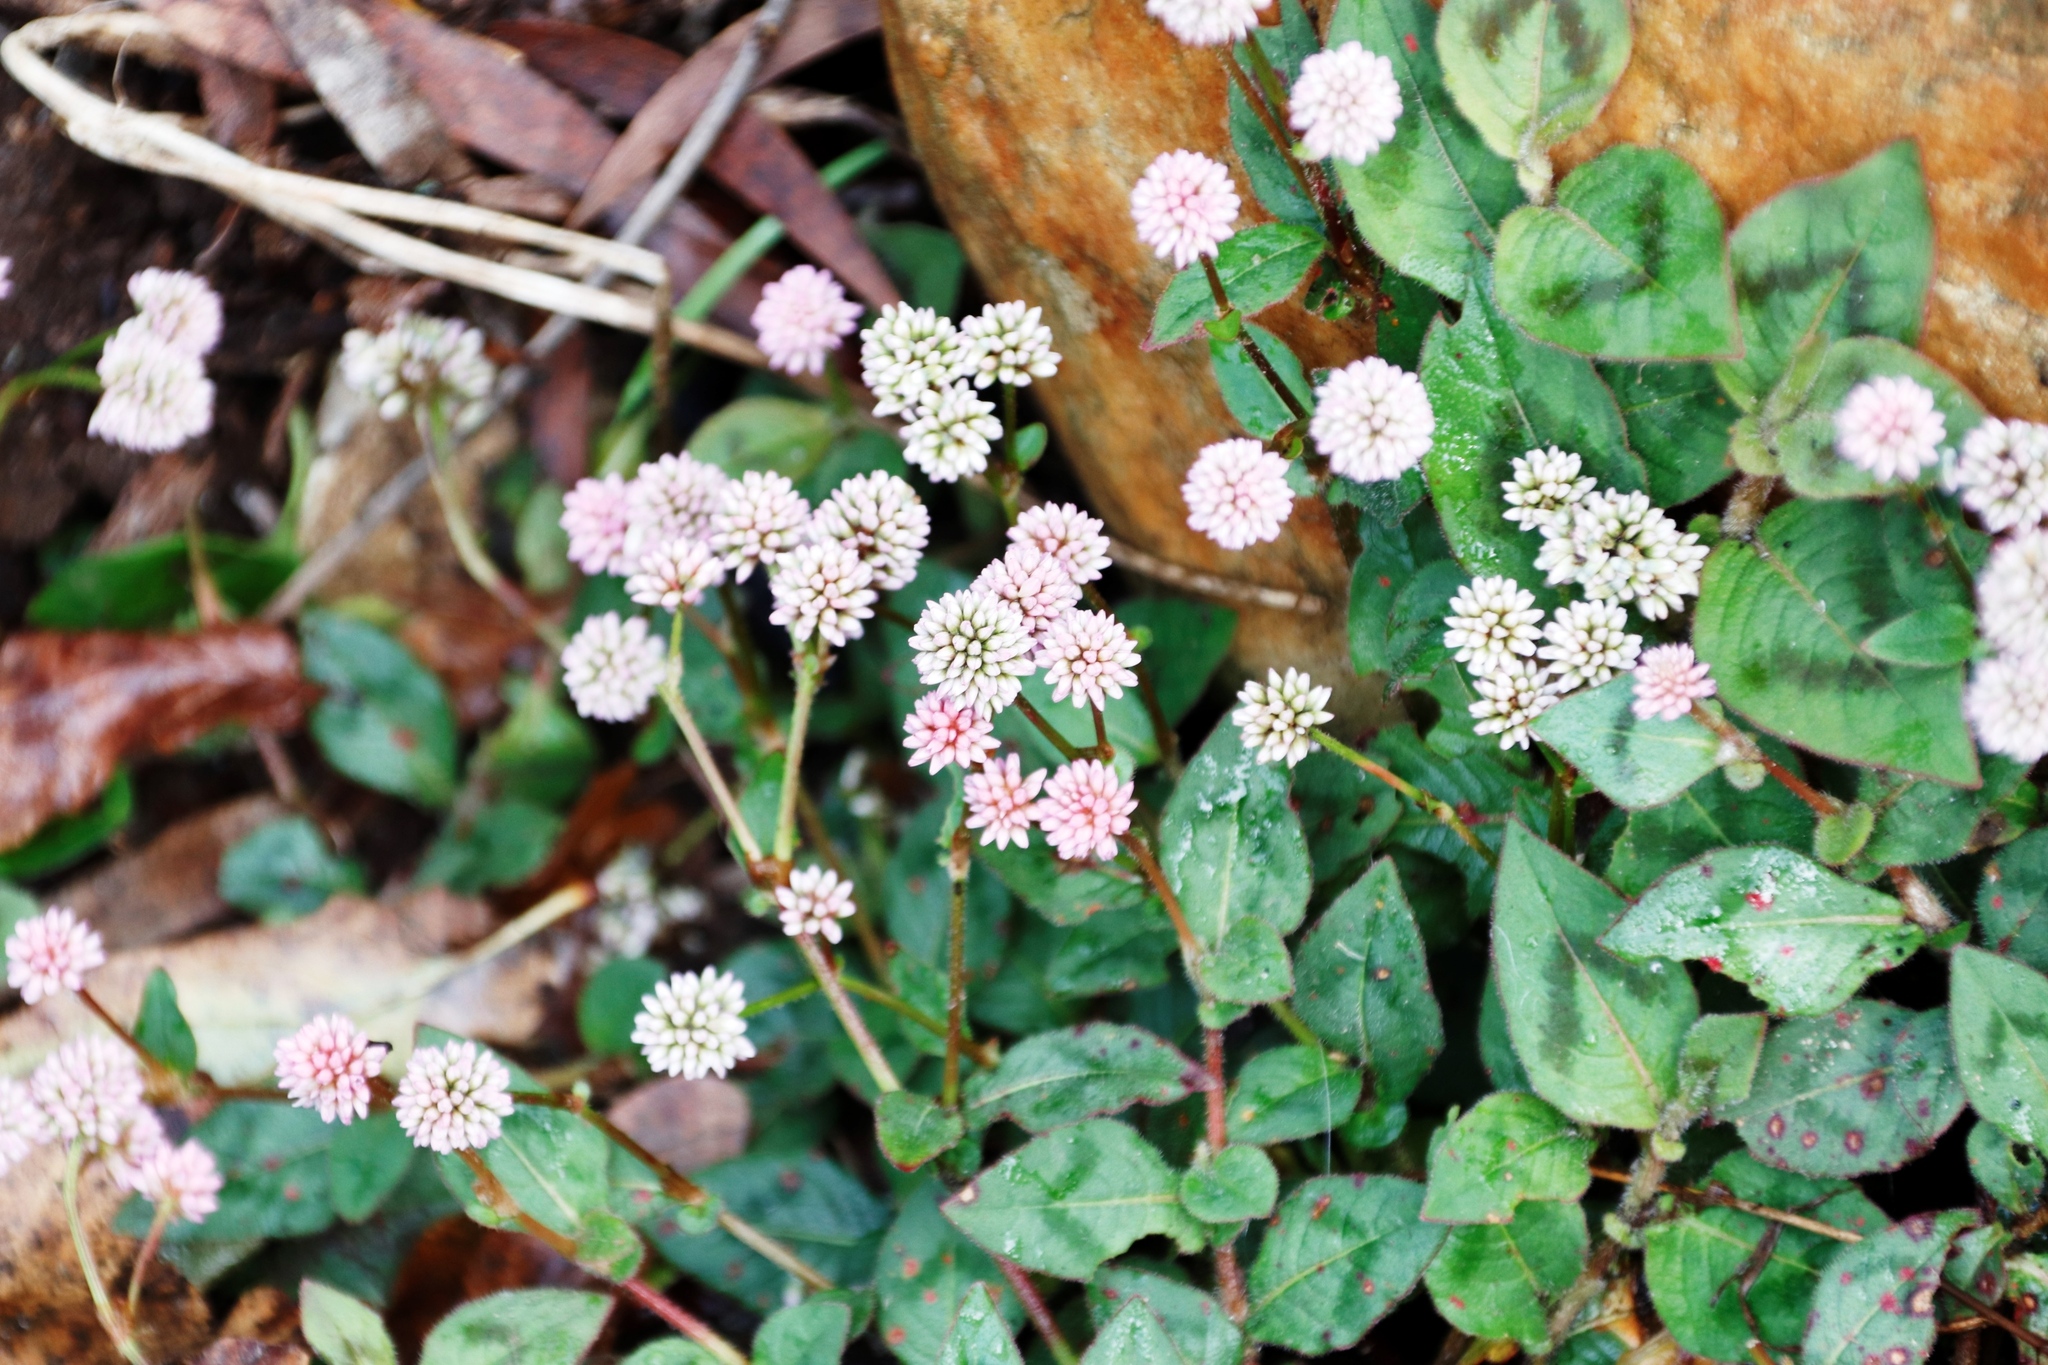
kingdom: Plantae
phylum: Tracheophyta
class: Magnoliopsida
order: Caryophyllales
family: Polygonaceae
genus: Persicaria
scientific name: Persicaria capitata
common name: Pinkhead smartweed
